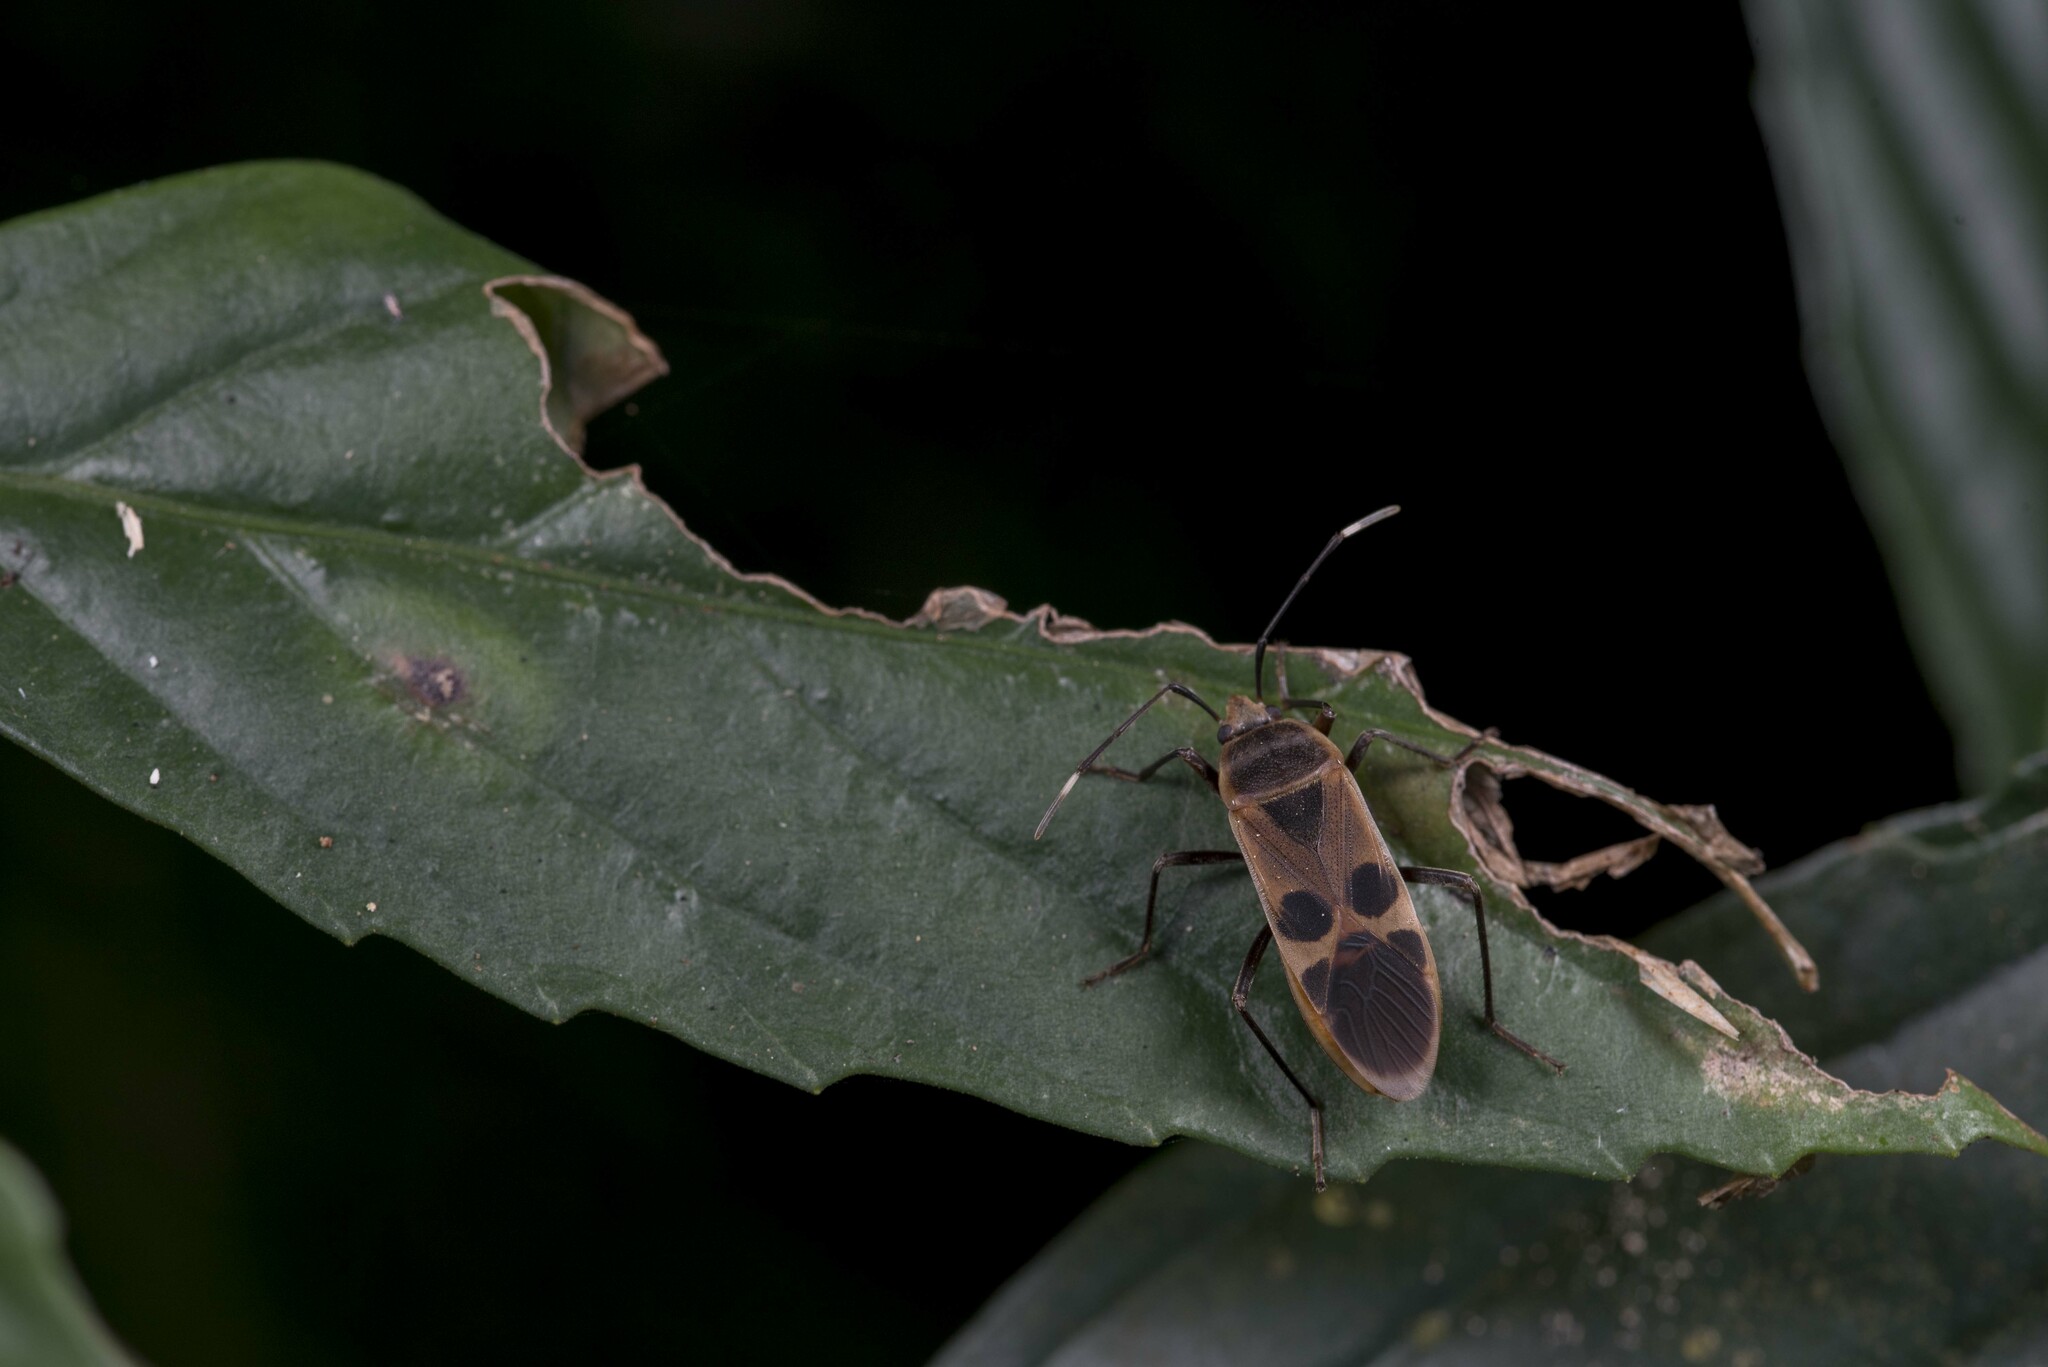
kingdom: Animalia
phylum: Arthropoda
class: Insecta
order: Hemiptera
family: Largidae
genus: Physopelta
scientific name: Physopelta gutta
